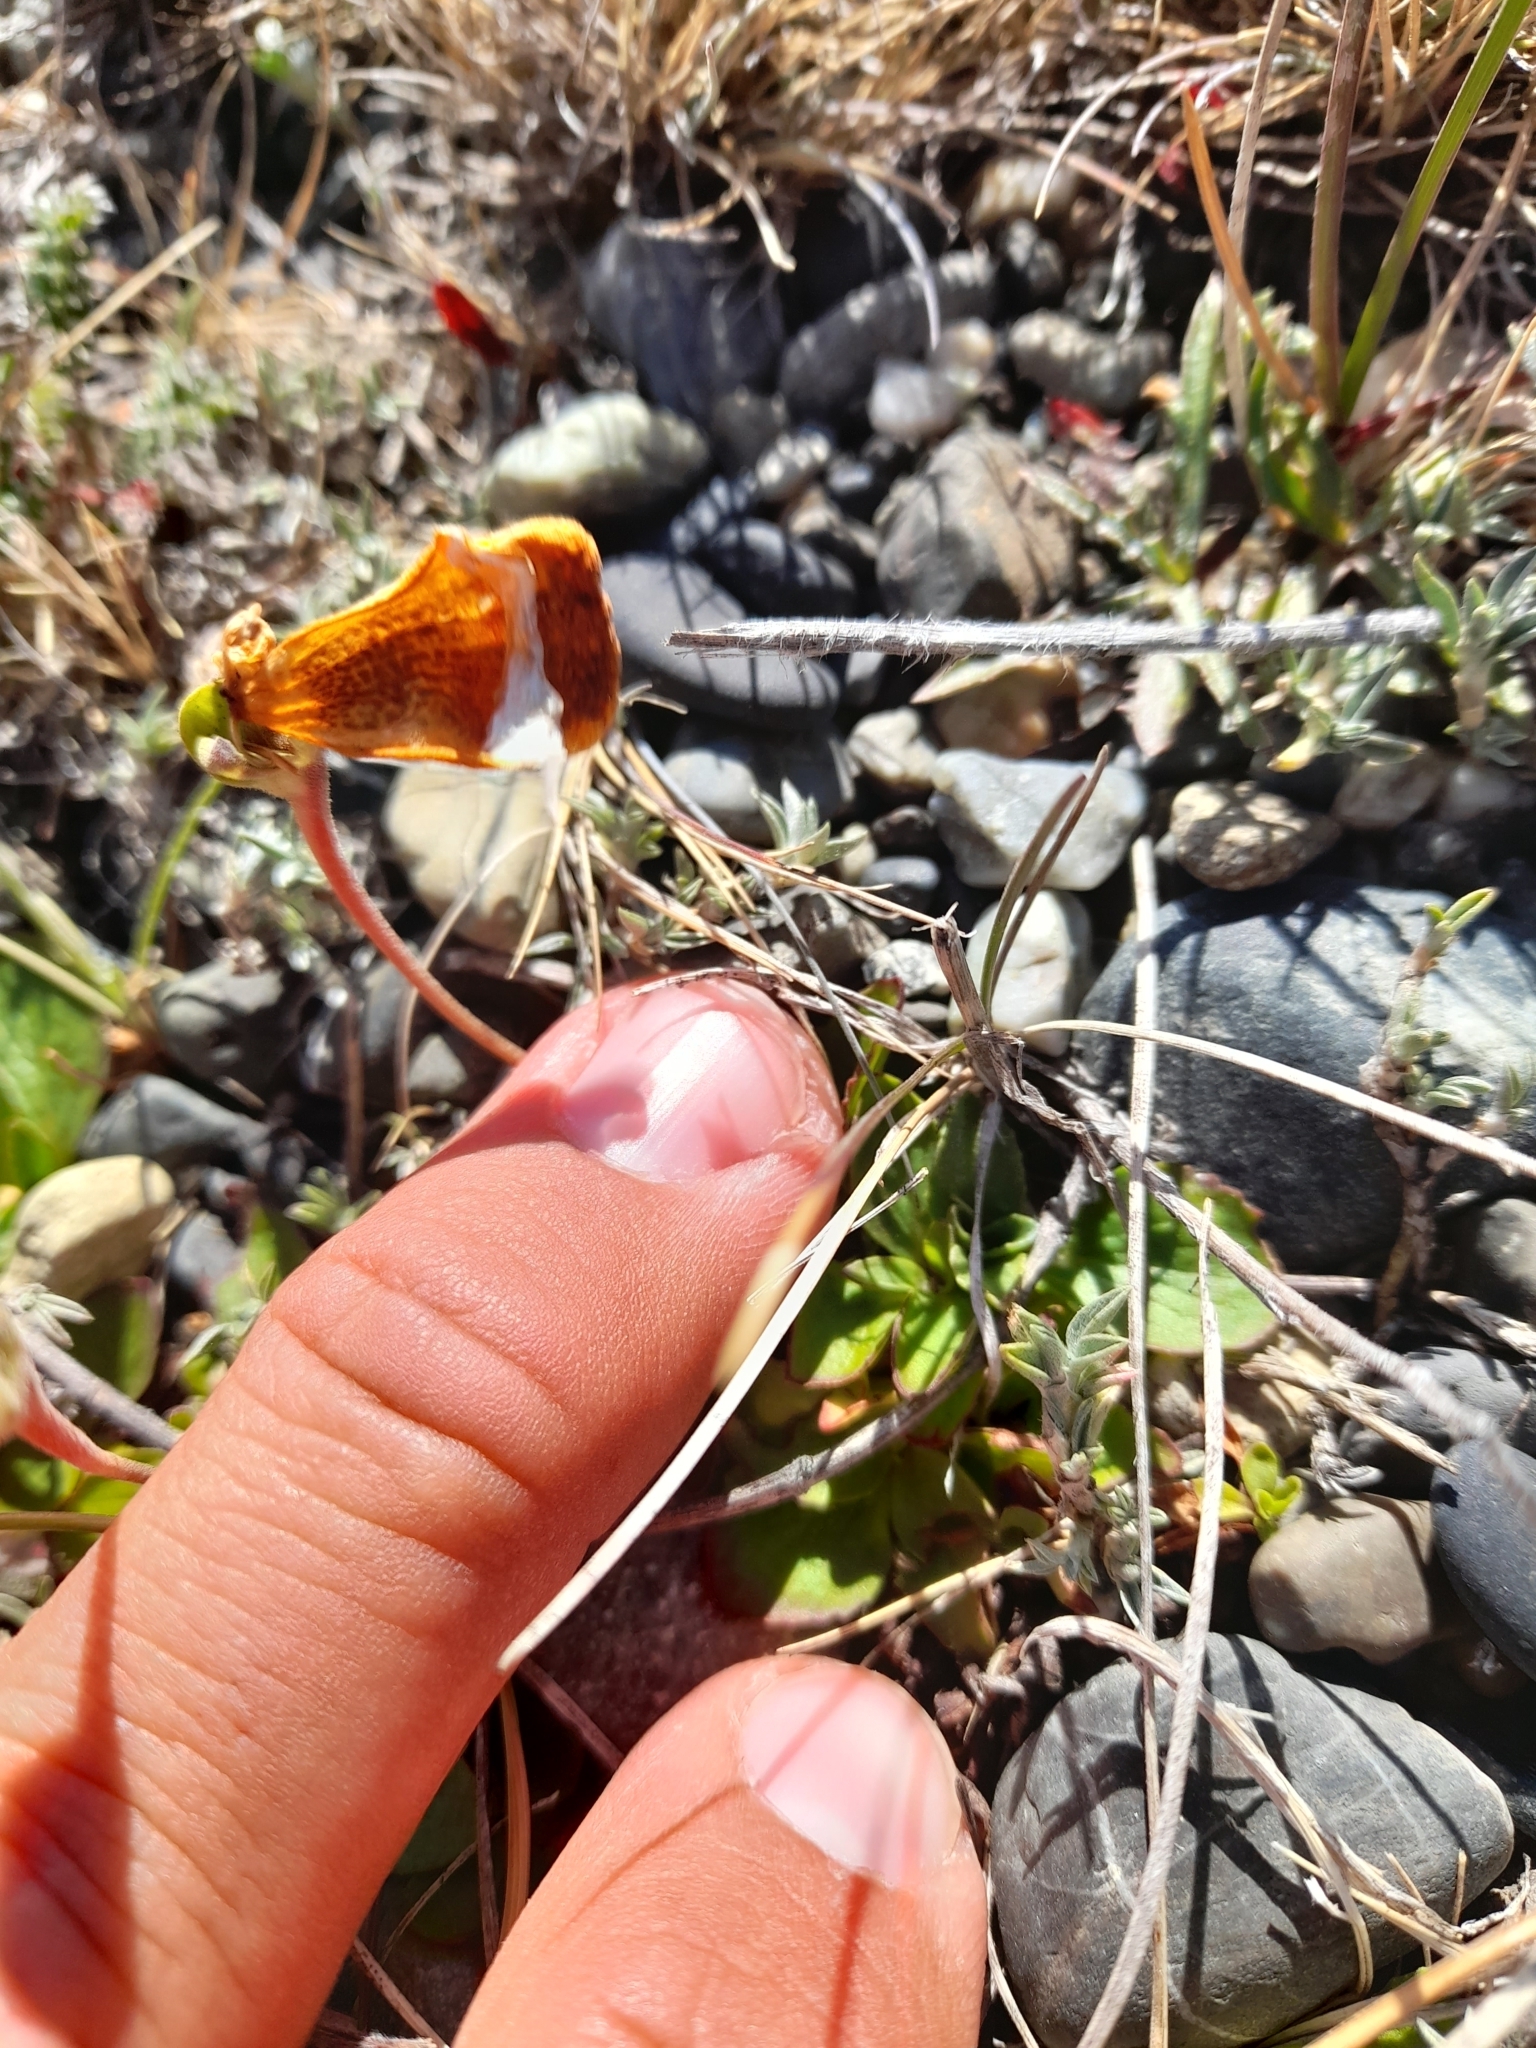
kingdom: Plantae
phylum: Tracheophyta
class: Magnoliopsida
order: Lamiales
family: Calceolariaceae
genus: Calceolaria
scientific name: Calceolaria uniflora
